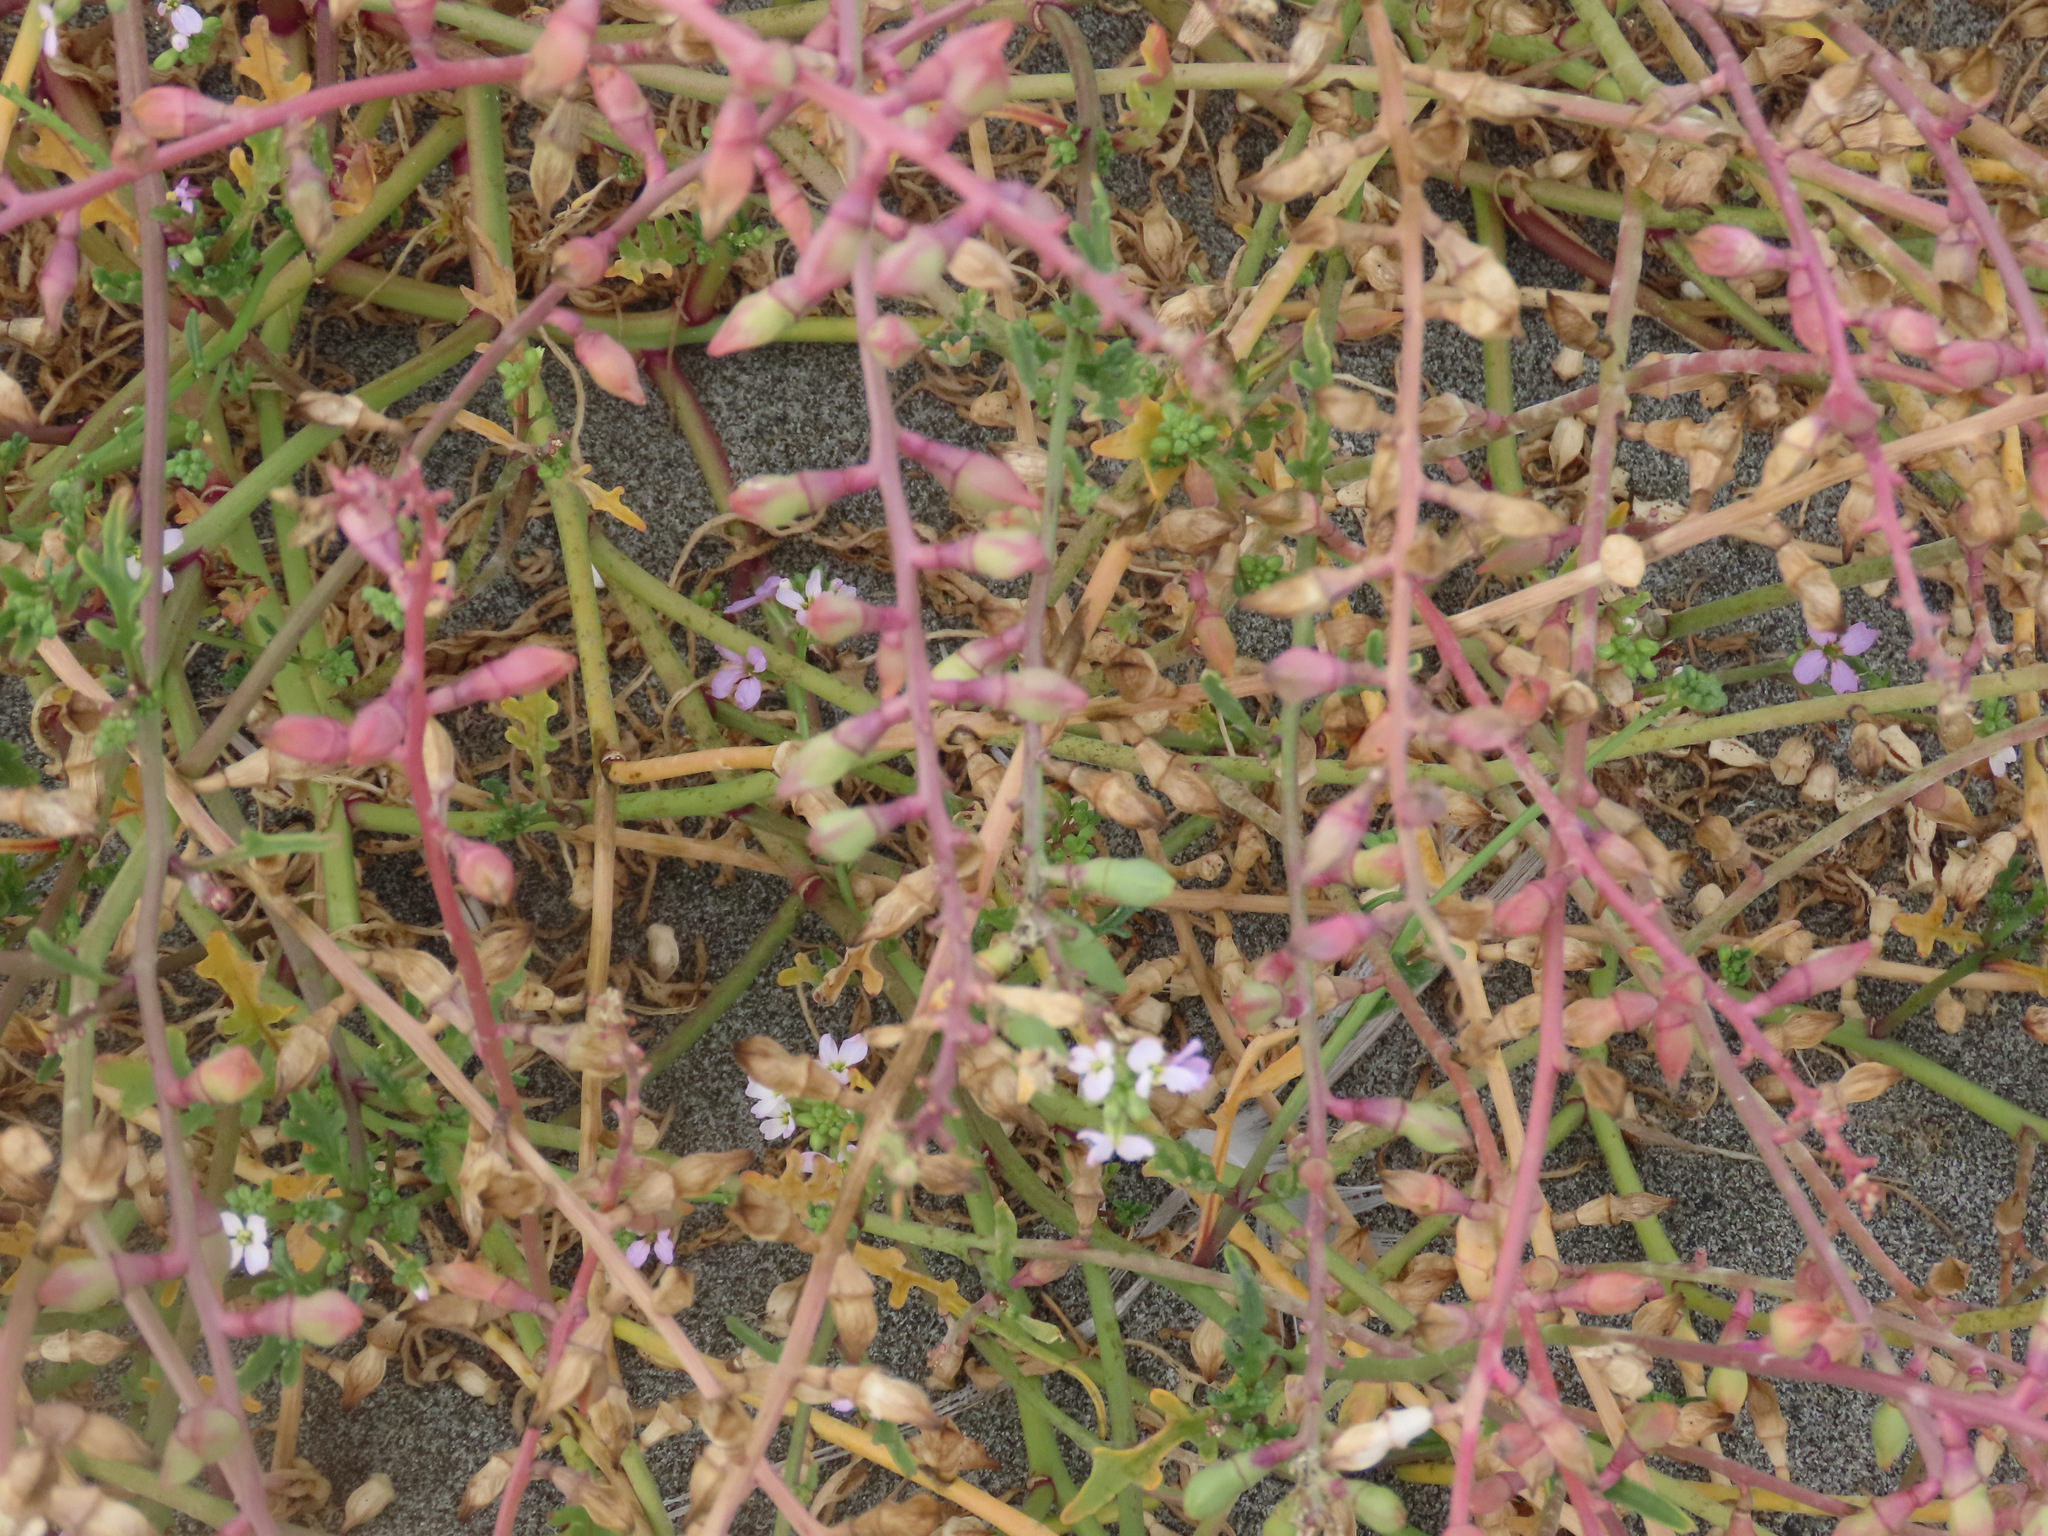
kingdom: Plantae
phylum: Tracheophyta
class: Magnoliopsida
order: Brassicales
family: Brassicaceae
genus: Cakile
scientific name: Cakile maritima
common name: Sea rocket
